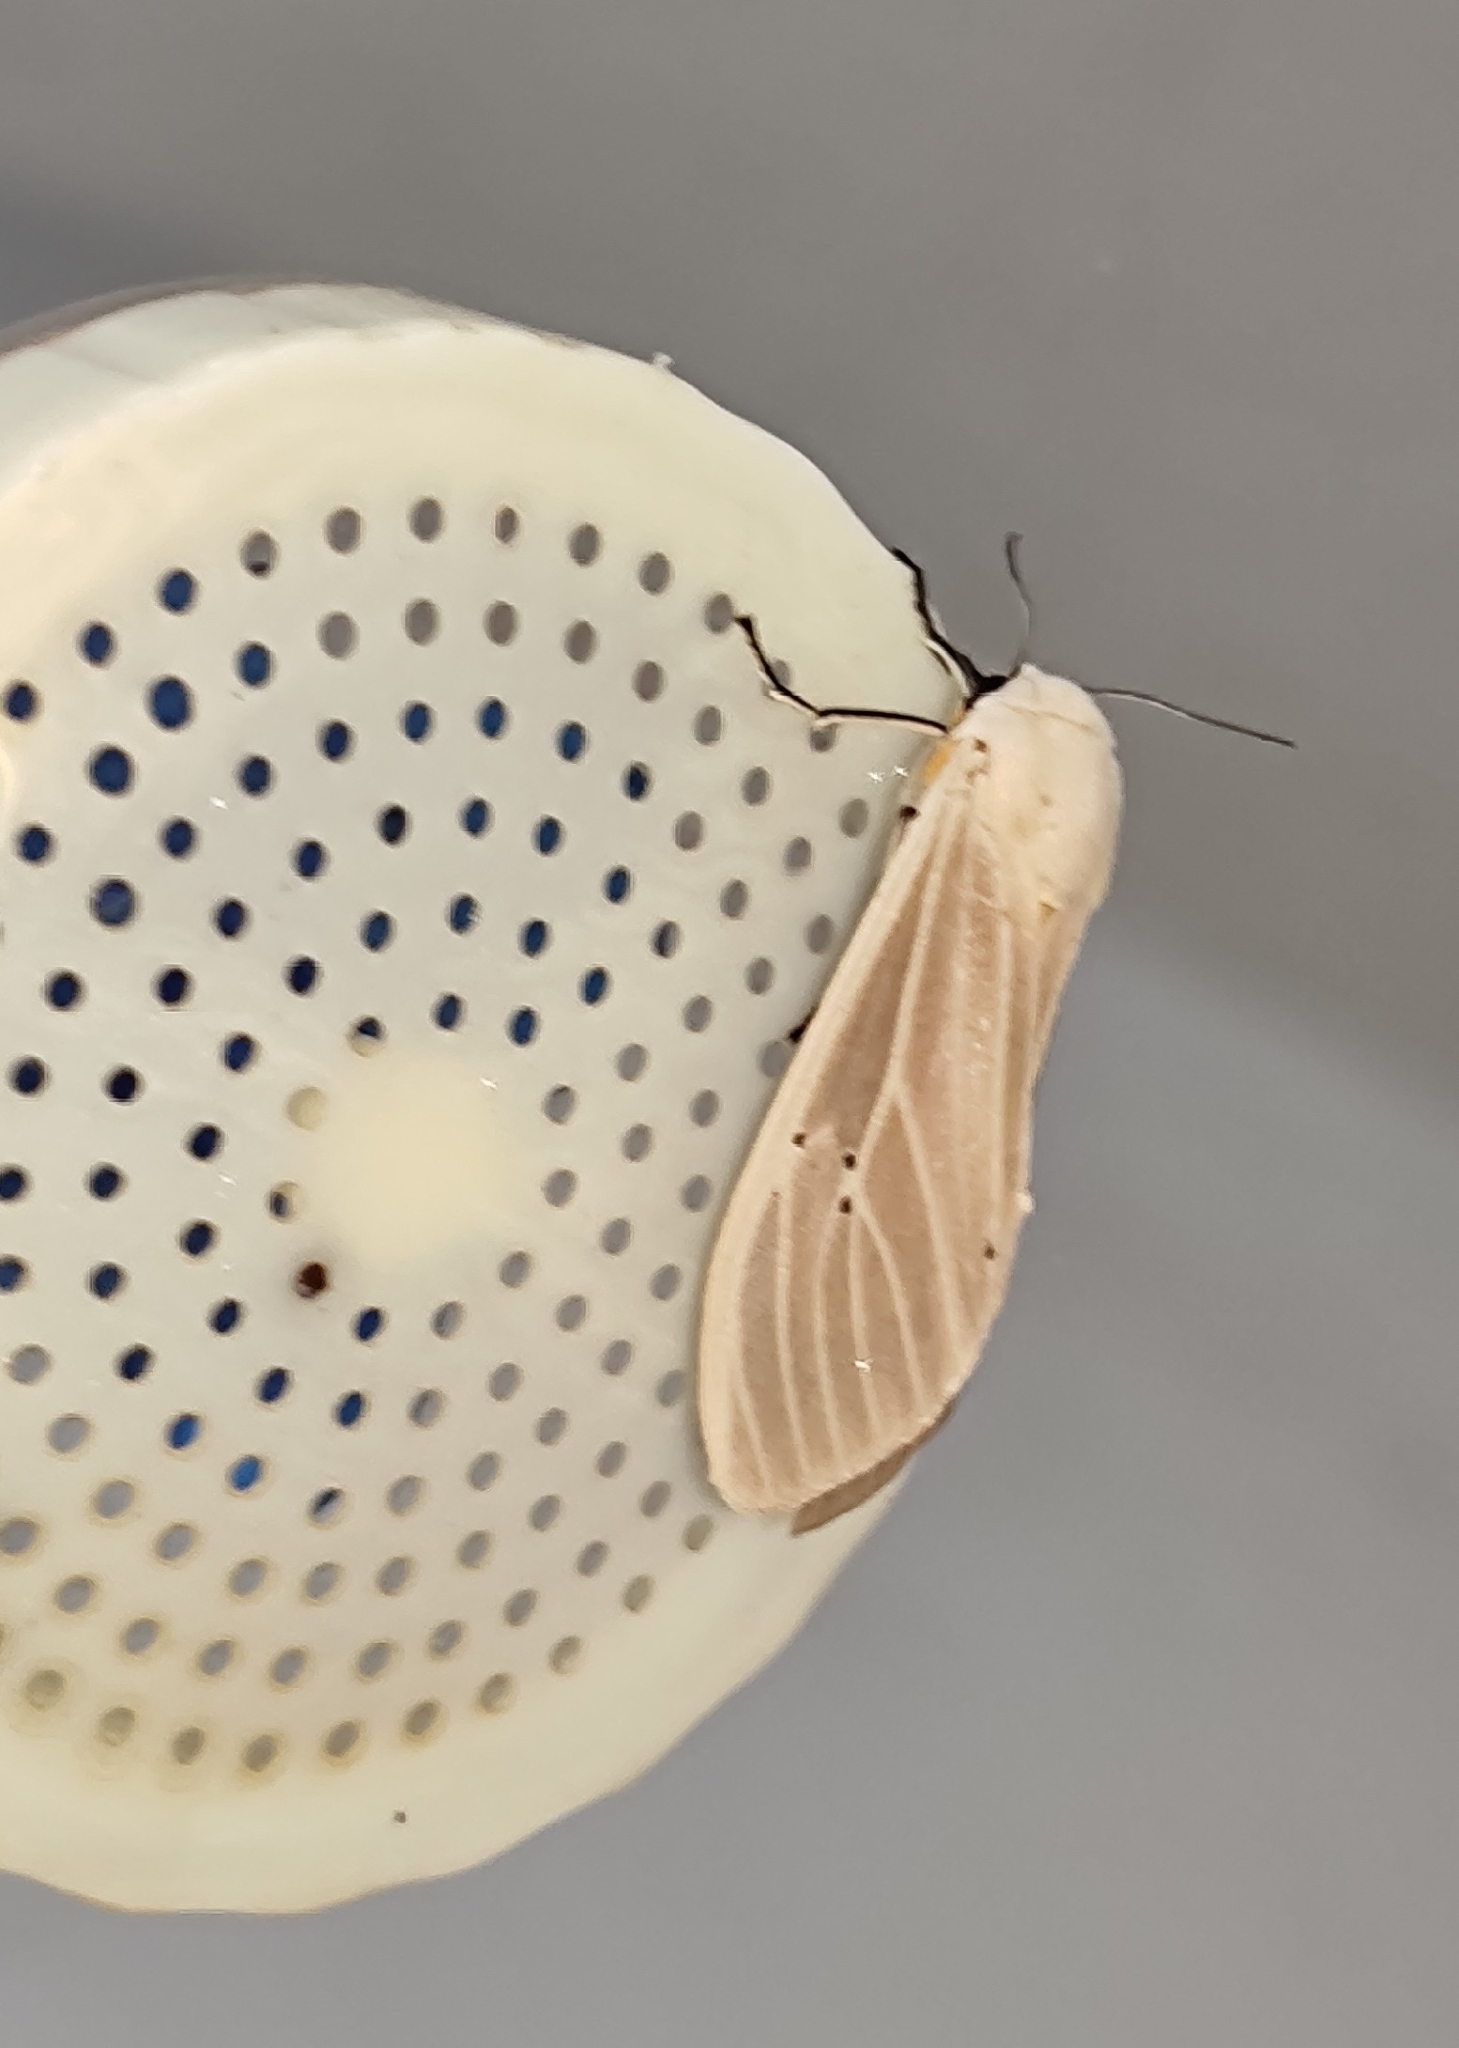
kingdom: Animalia
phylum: Arthropoda
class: Insecta
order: Lepidoptera
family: Erebidae
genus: Creatonotos
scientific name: Creatonotos transiens
